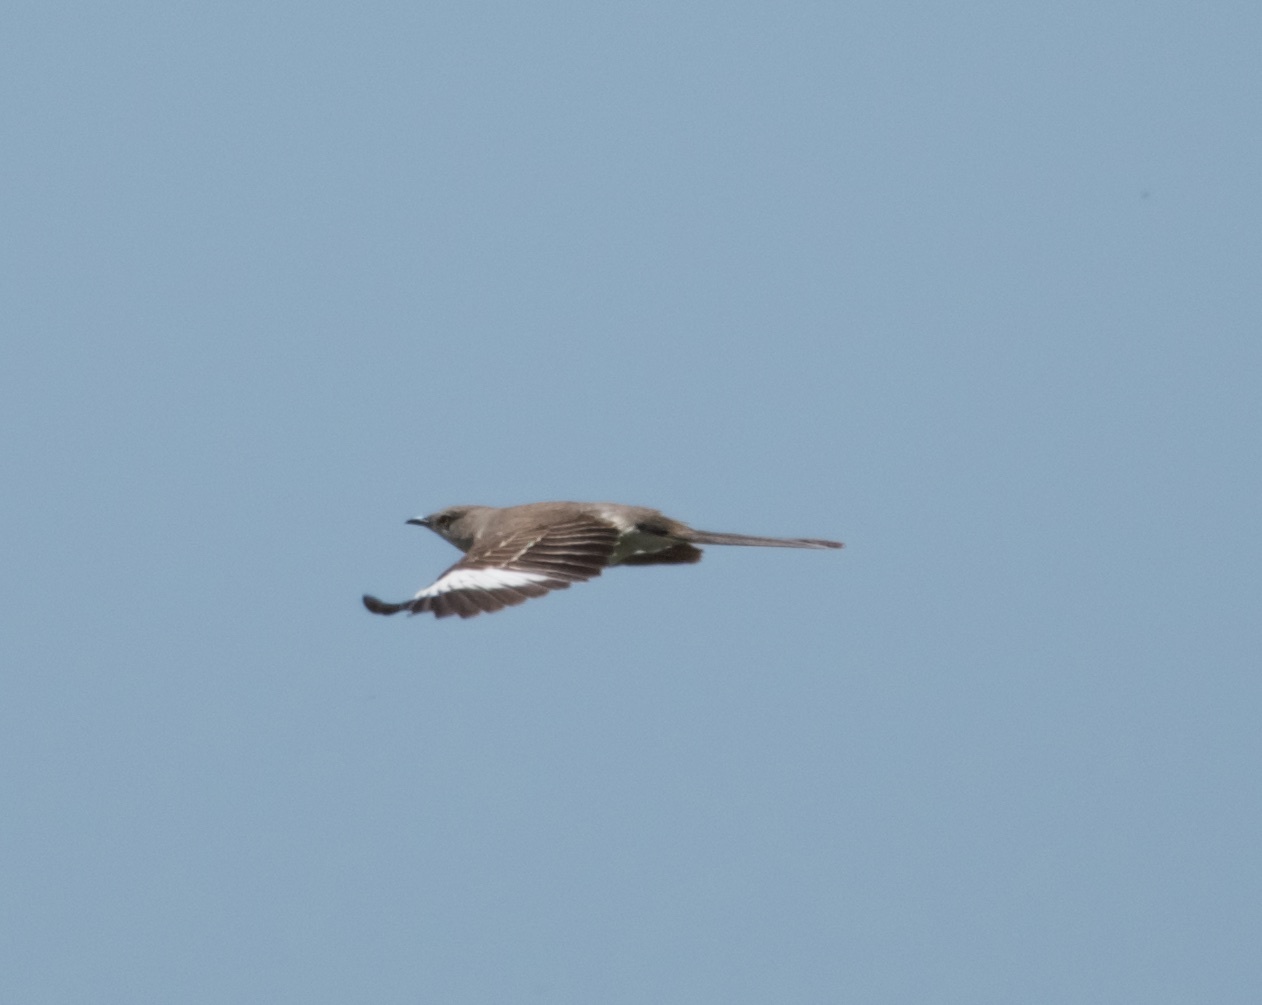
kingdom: Animalia
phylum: Chordata
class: Aves
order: Passeriformes
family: Mimidae
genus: Mimus
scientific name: Mimus polyglottos
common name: Northern mockingbird
